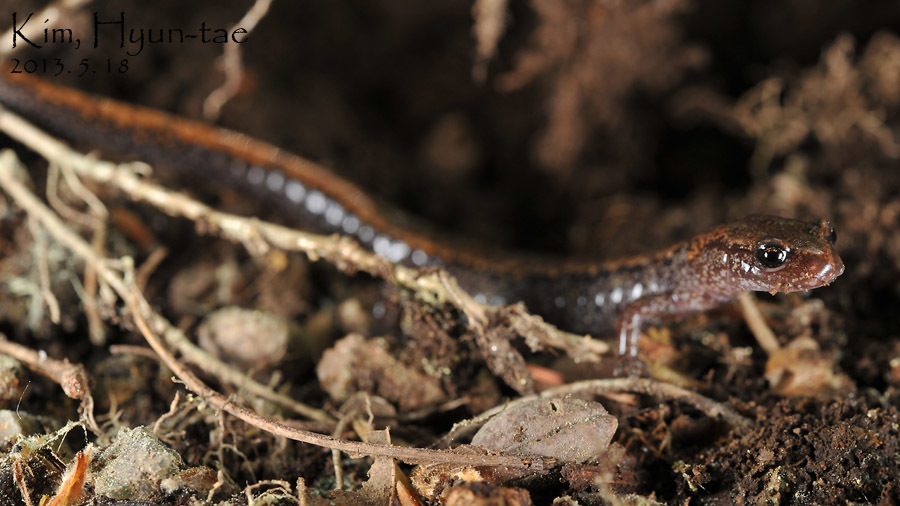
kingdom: Animalia
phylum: Chordata
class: Amphibia
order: Caudata
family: Plethodontidae
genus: Karsenia
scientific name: Karsenia koreana
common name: Korean crevice salamander
